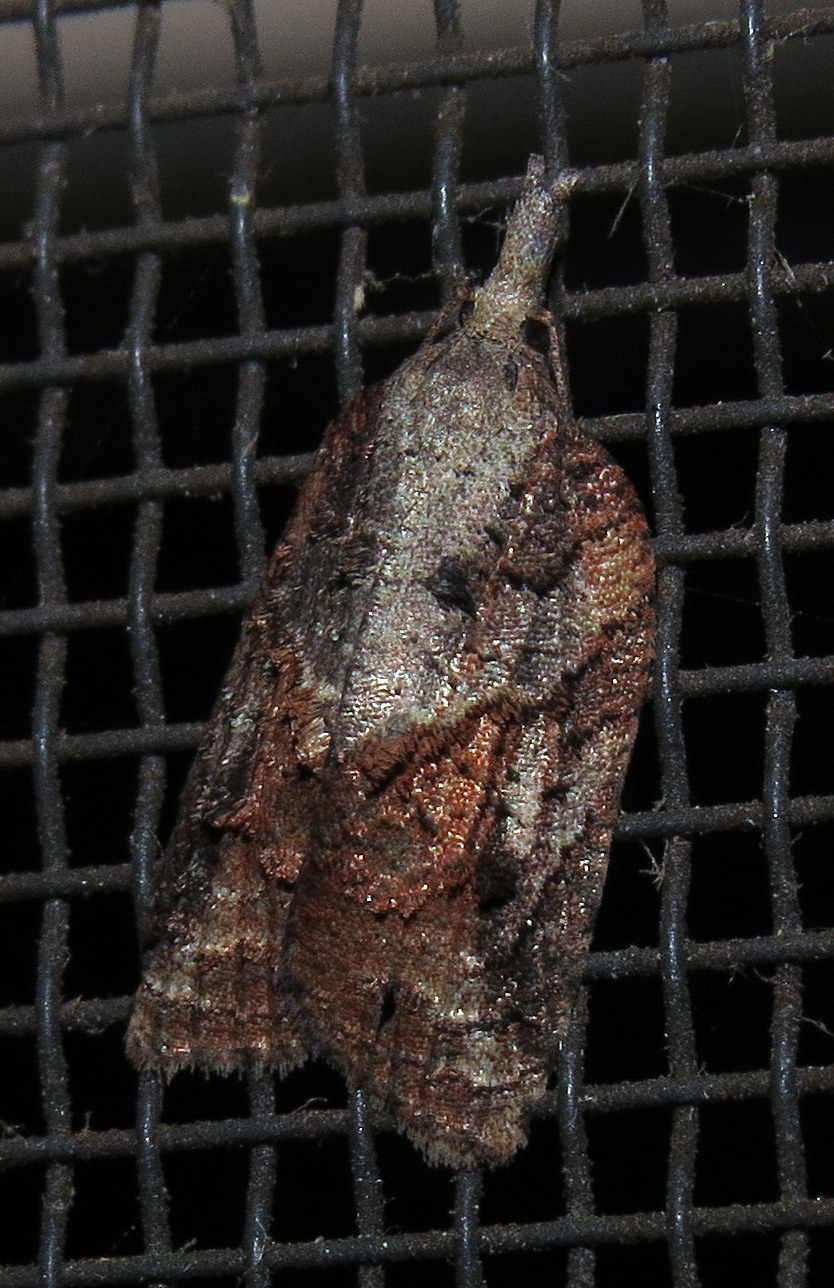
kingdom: Animalia
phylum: Arthropoda
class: Insecta
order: Lepidoptera
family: Tortricidae
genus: Platynota
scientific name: Platynota idaeusalis
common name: Tufted apple bud moth
